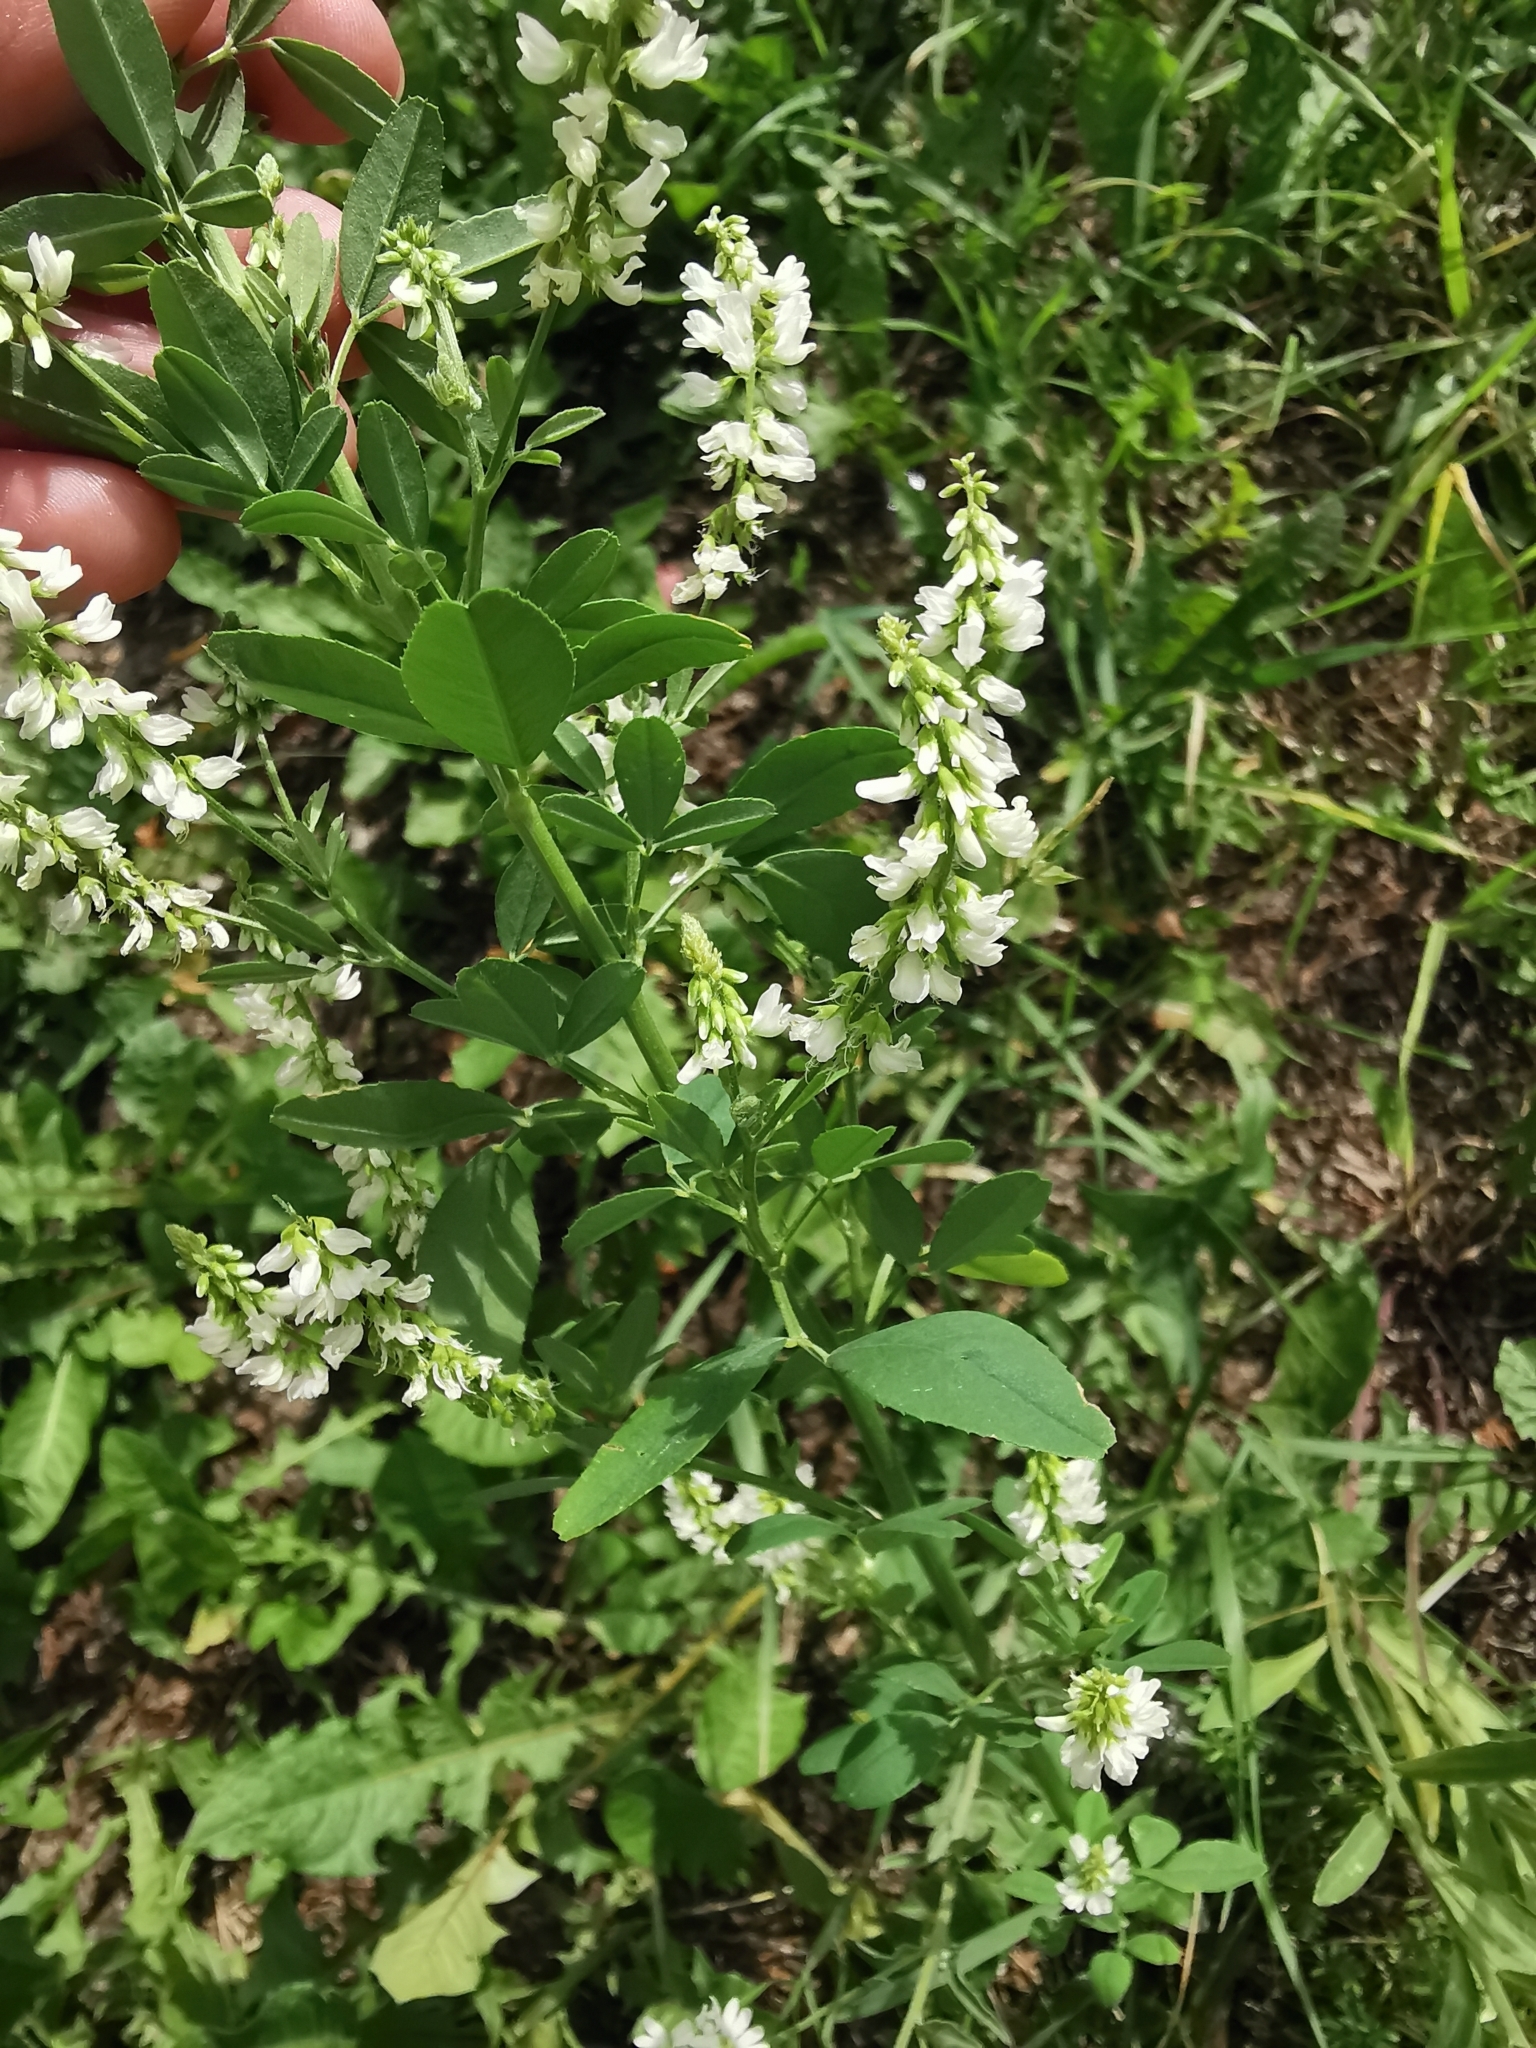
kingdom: Plantae
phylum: Tracheophyta
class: Magnoliopsida
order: Fabales
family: Fabaceae
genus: Melilotus
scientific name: Melilotus albus
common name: White melilot
